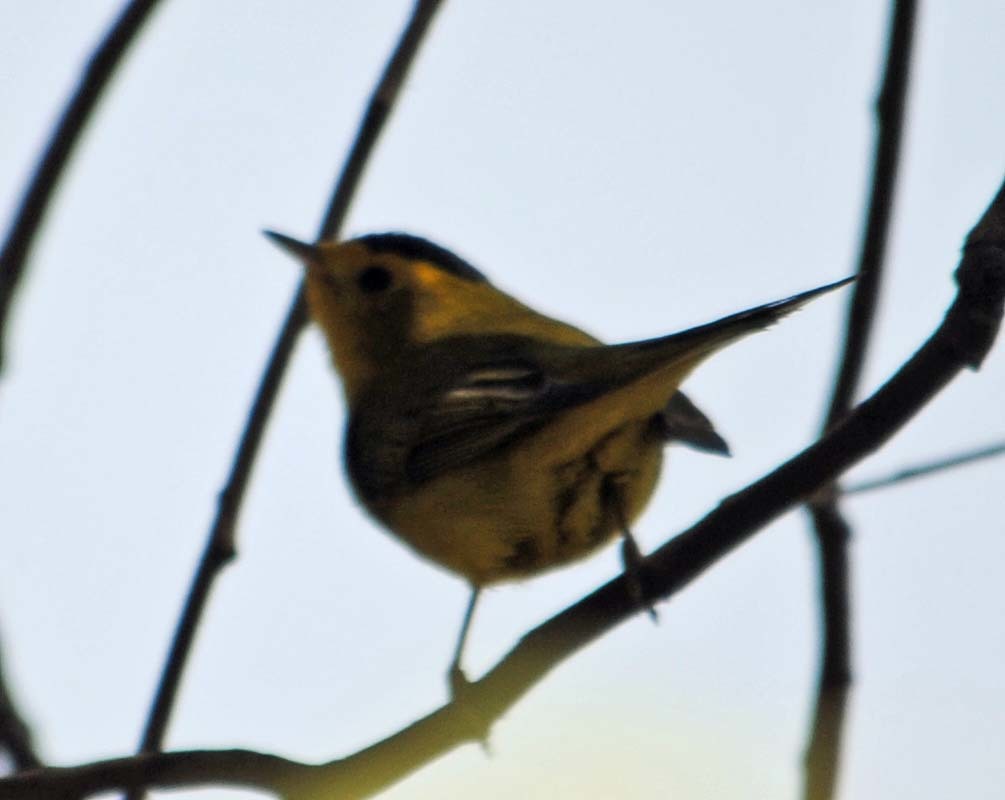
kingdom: Animalia
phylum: Chordata
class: Aves
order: Passeriformes
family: Parulidae
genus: Cardellina
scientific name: Cardellina pusilla
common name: Wilson's warbler
